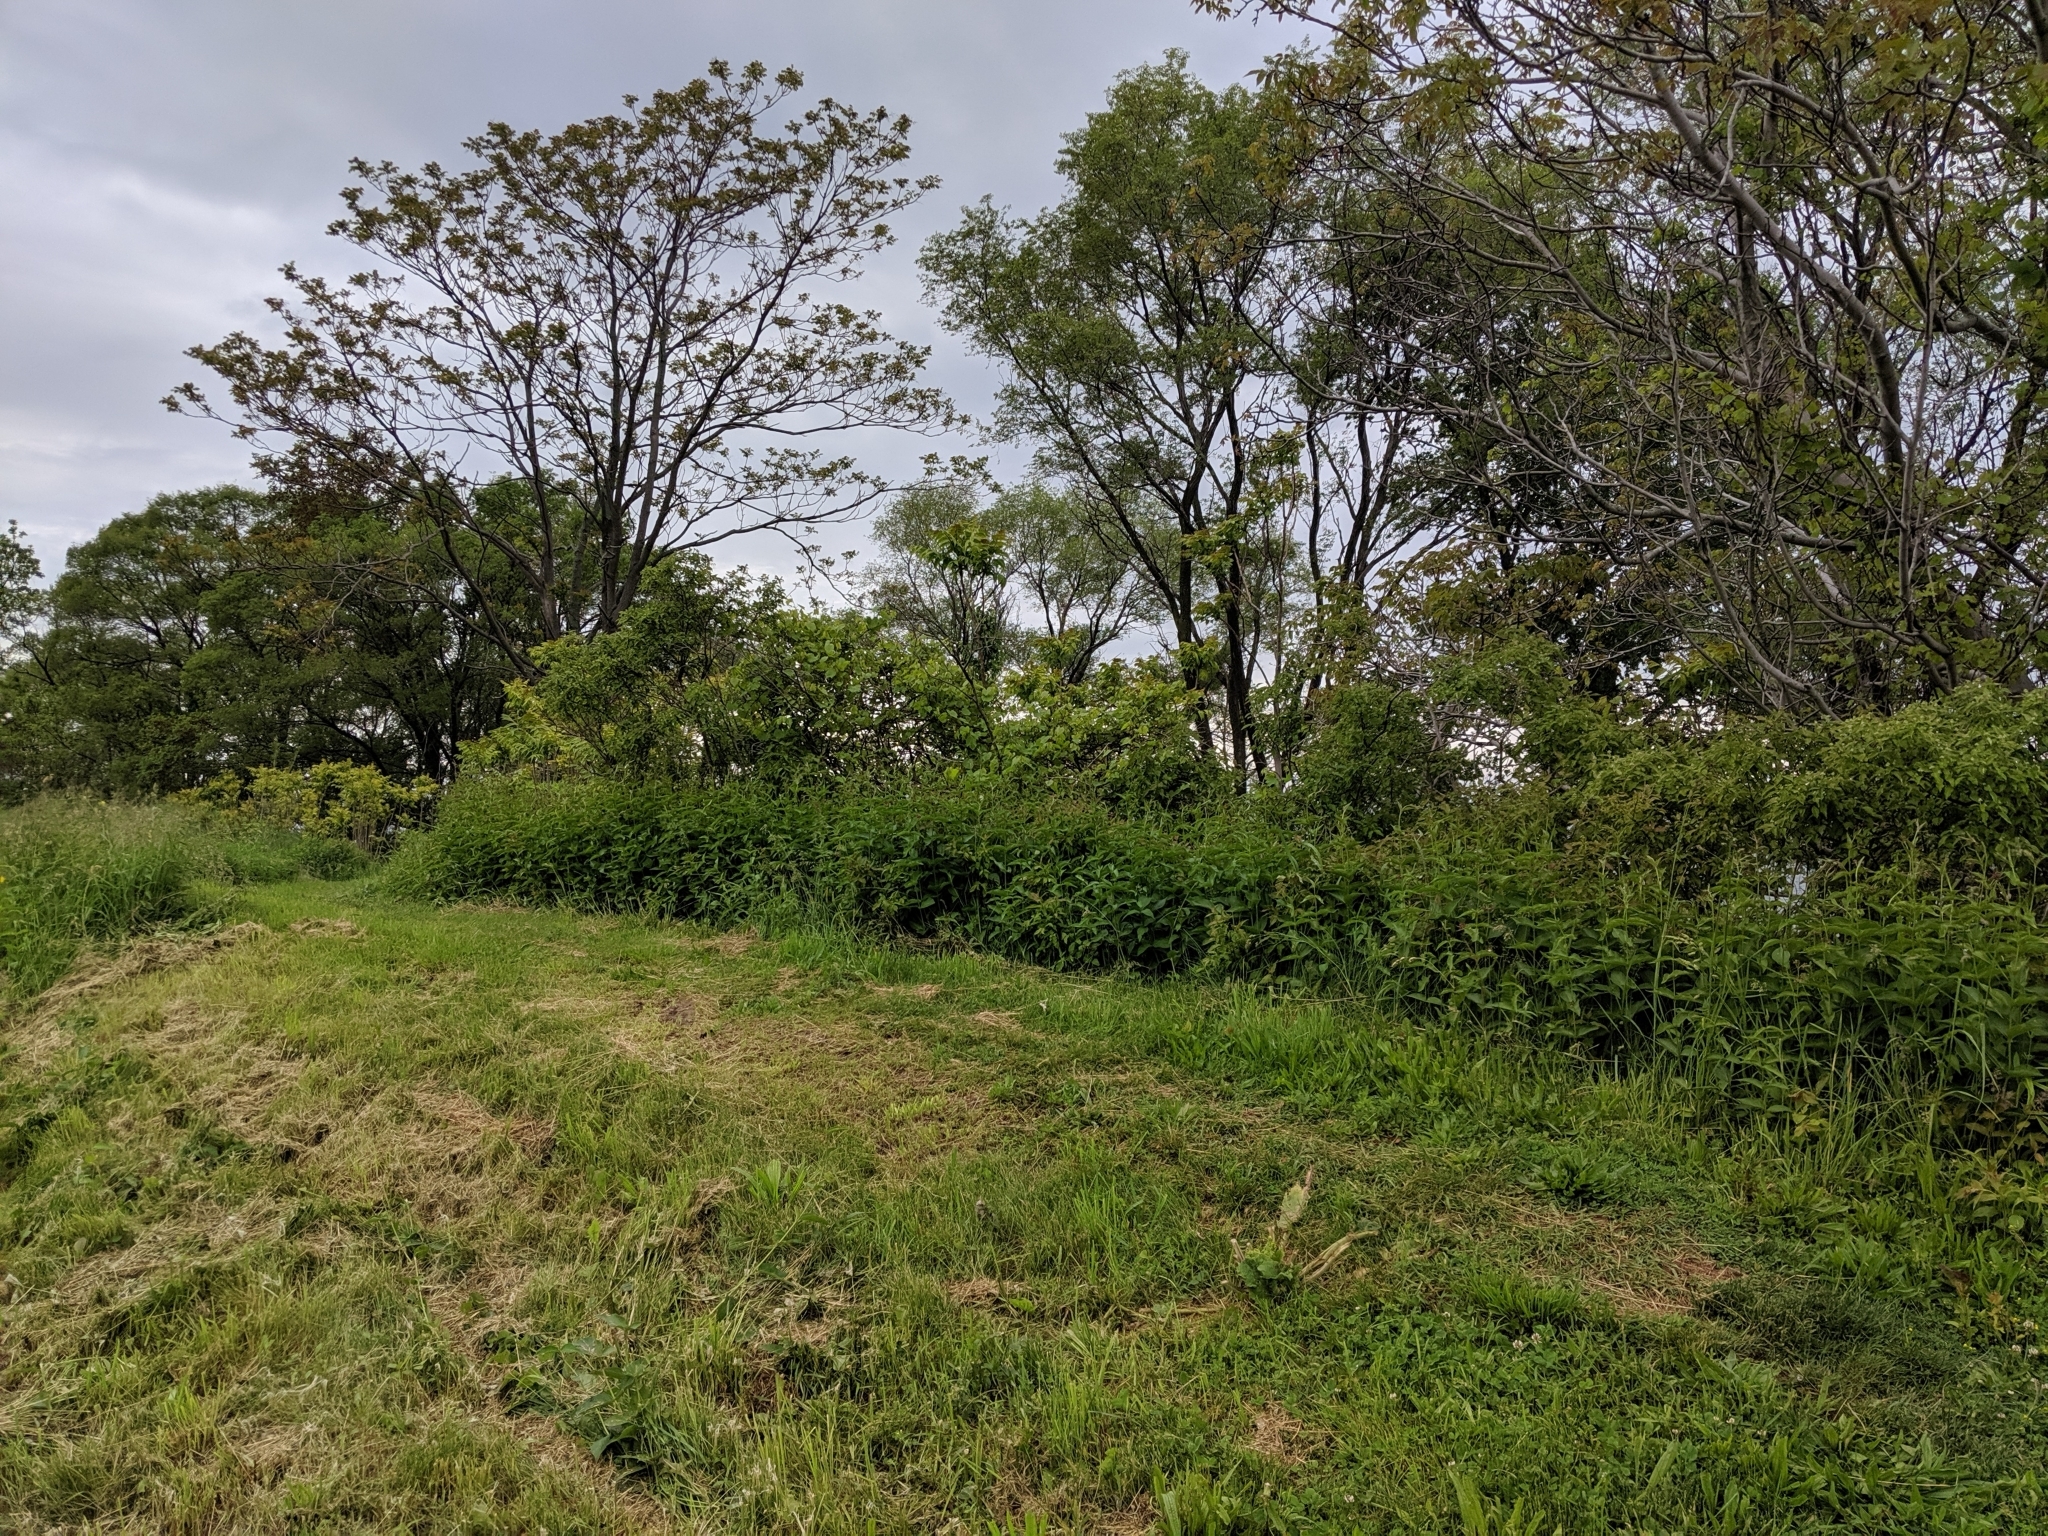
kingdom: Plantae
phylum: Tracheophyta
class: Magnoliopsida
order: Gentianales
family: Apocynaceae
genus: Vincetoxicum
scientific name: Vincetoxicum rossicum
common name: Dog-strangling vine
